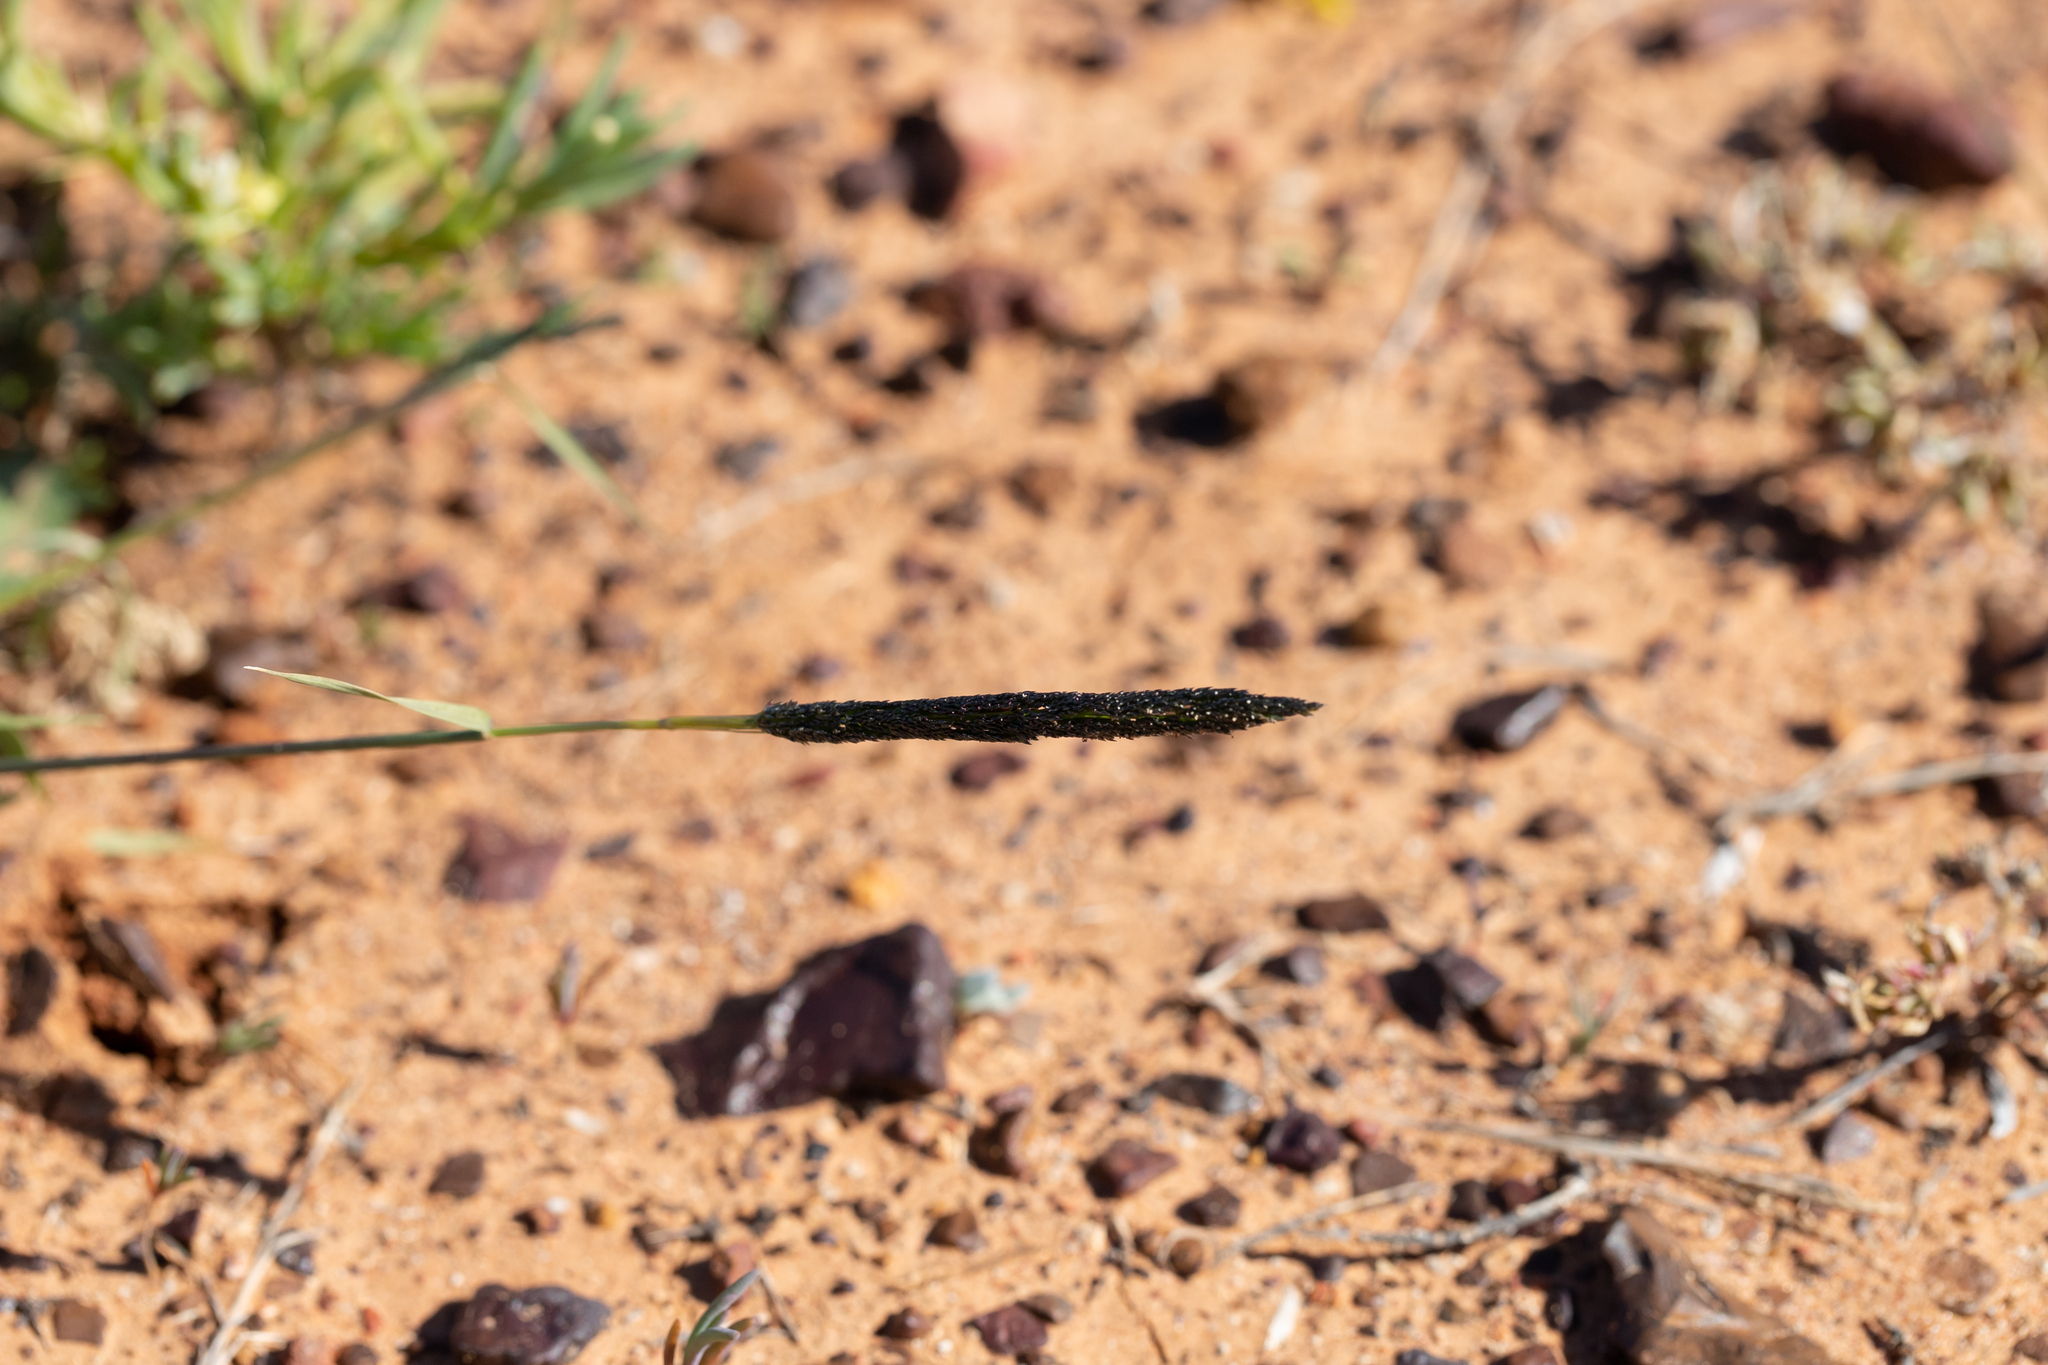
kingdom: Plantae
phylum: Tracheophyta
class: Liliopsida
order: Poales
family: Poaceae
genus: Sporobolus
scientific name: Sporobolus actinocladus
